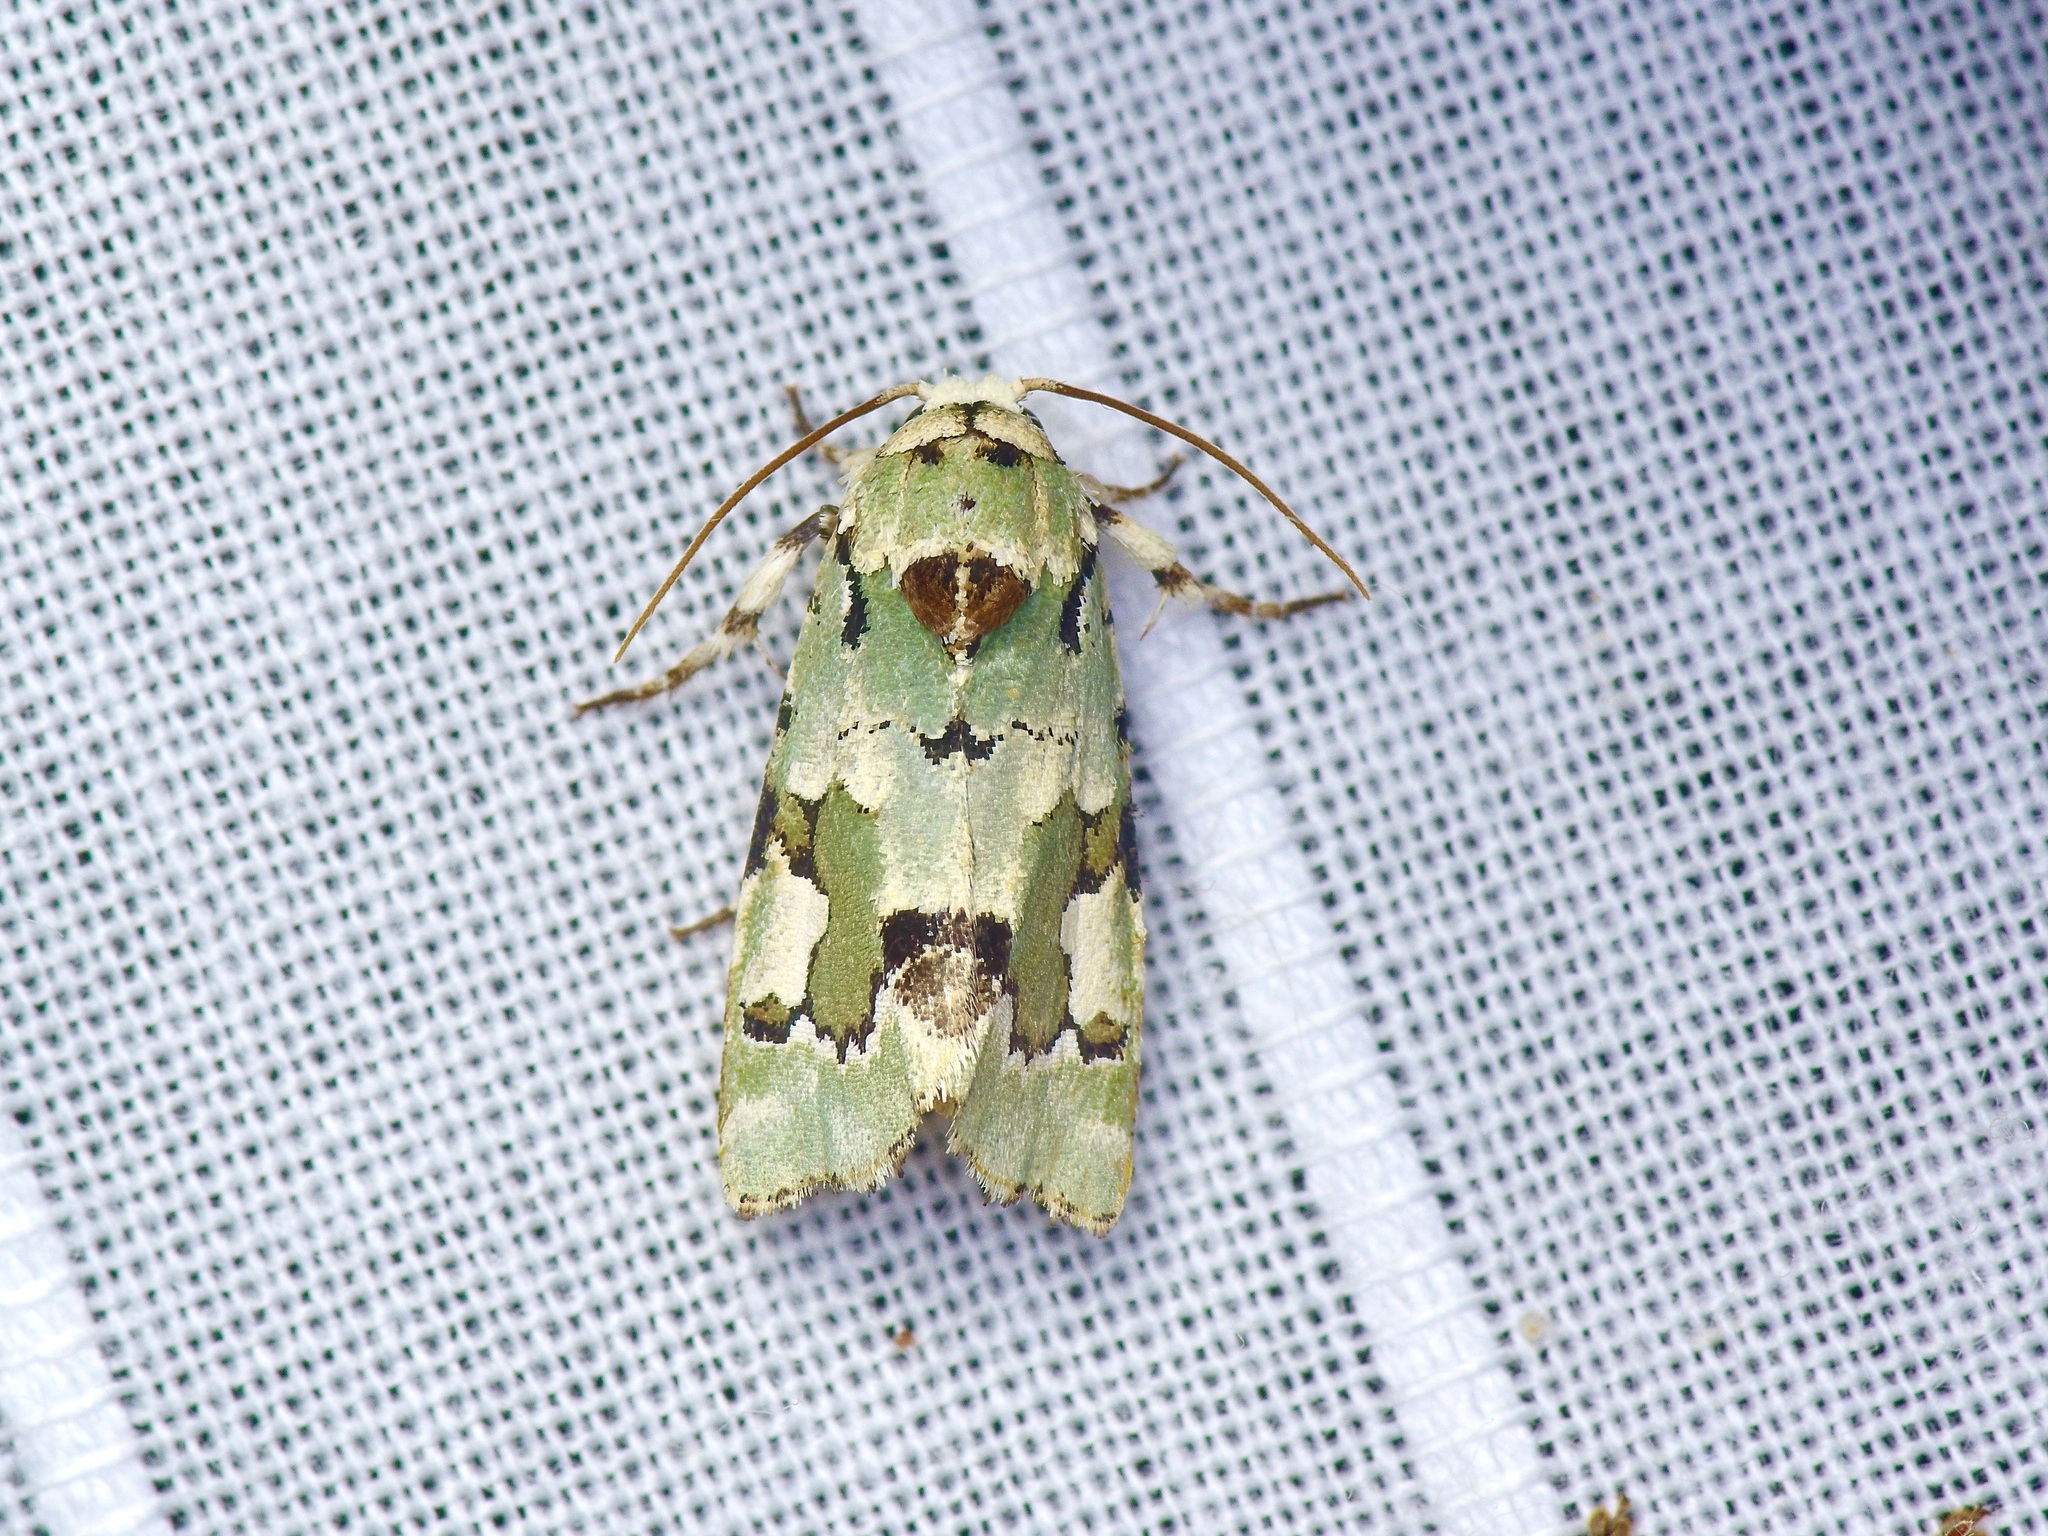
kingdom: Animalia
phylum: Arthropoda
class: Insecta
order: Lepidoptera
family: Noctuidae
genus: Emarginea
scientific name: Emarginea percara
